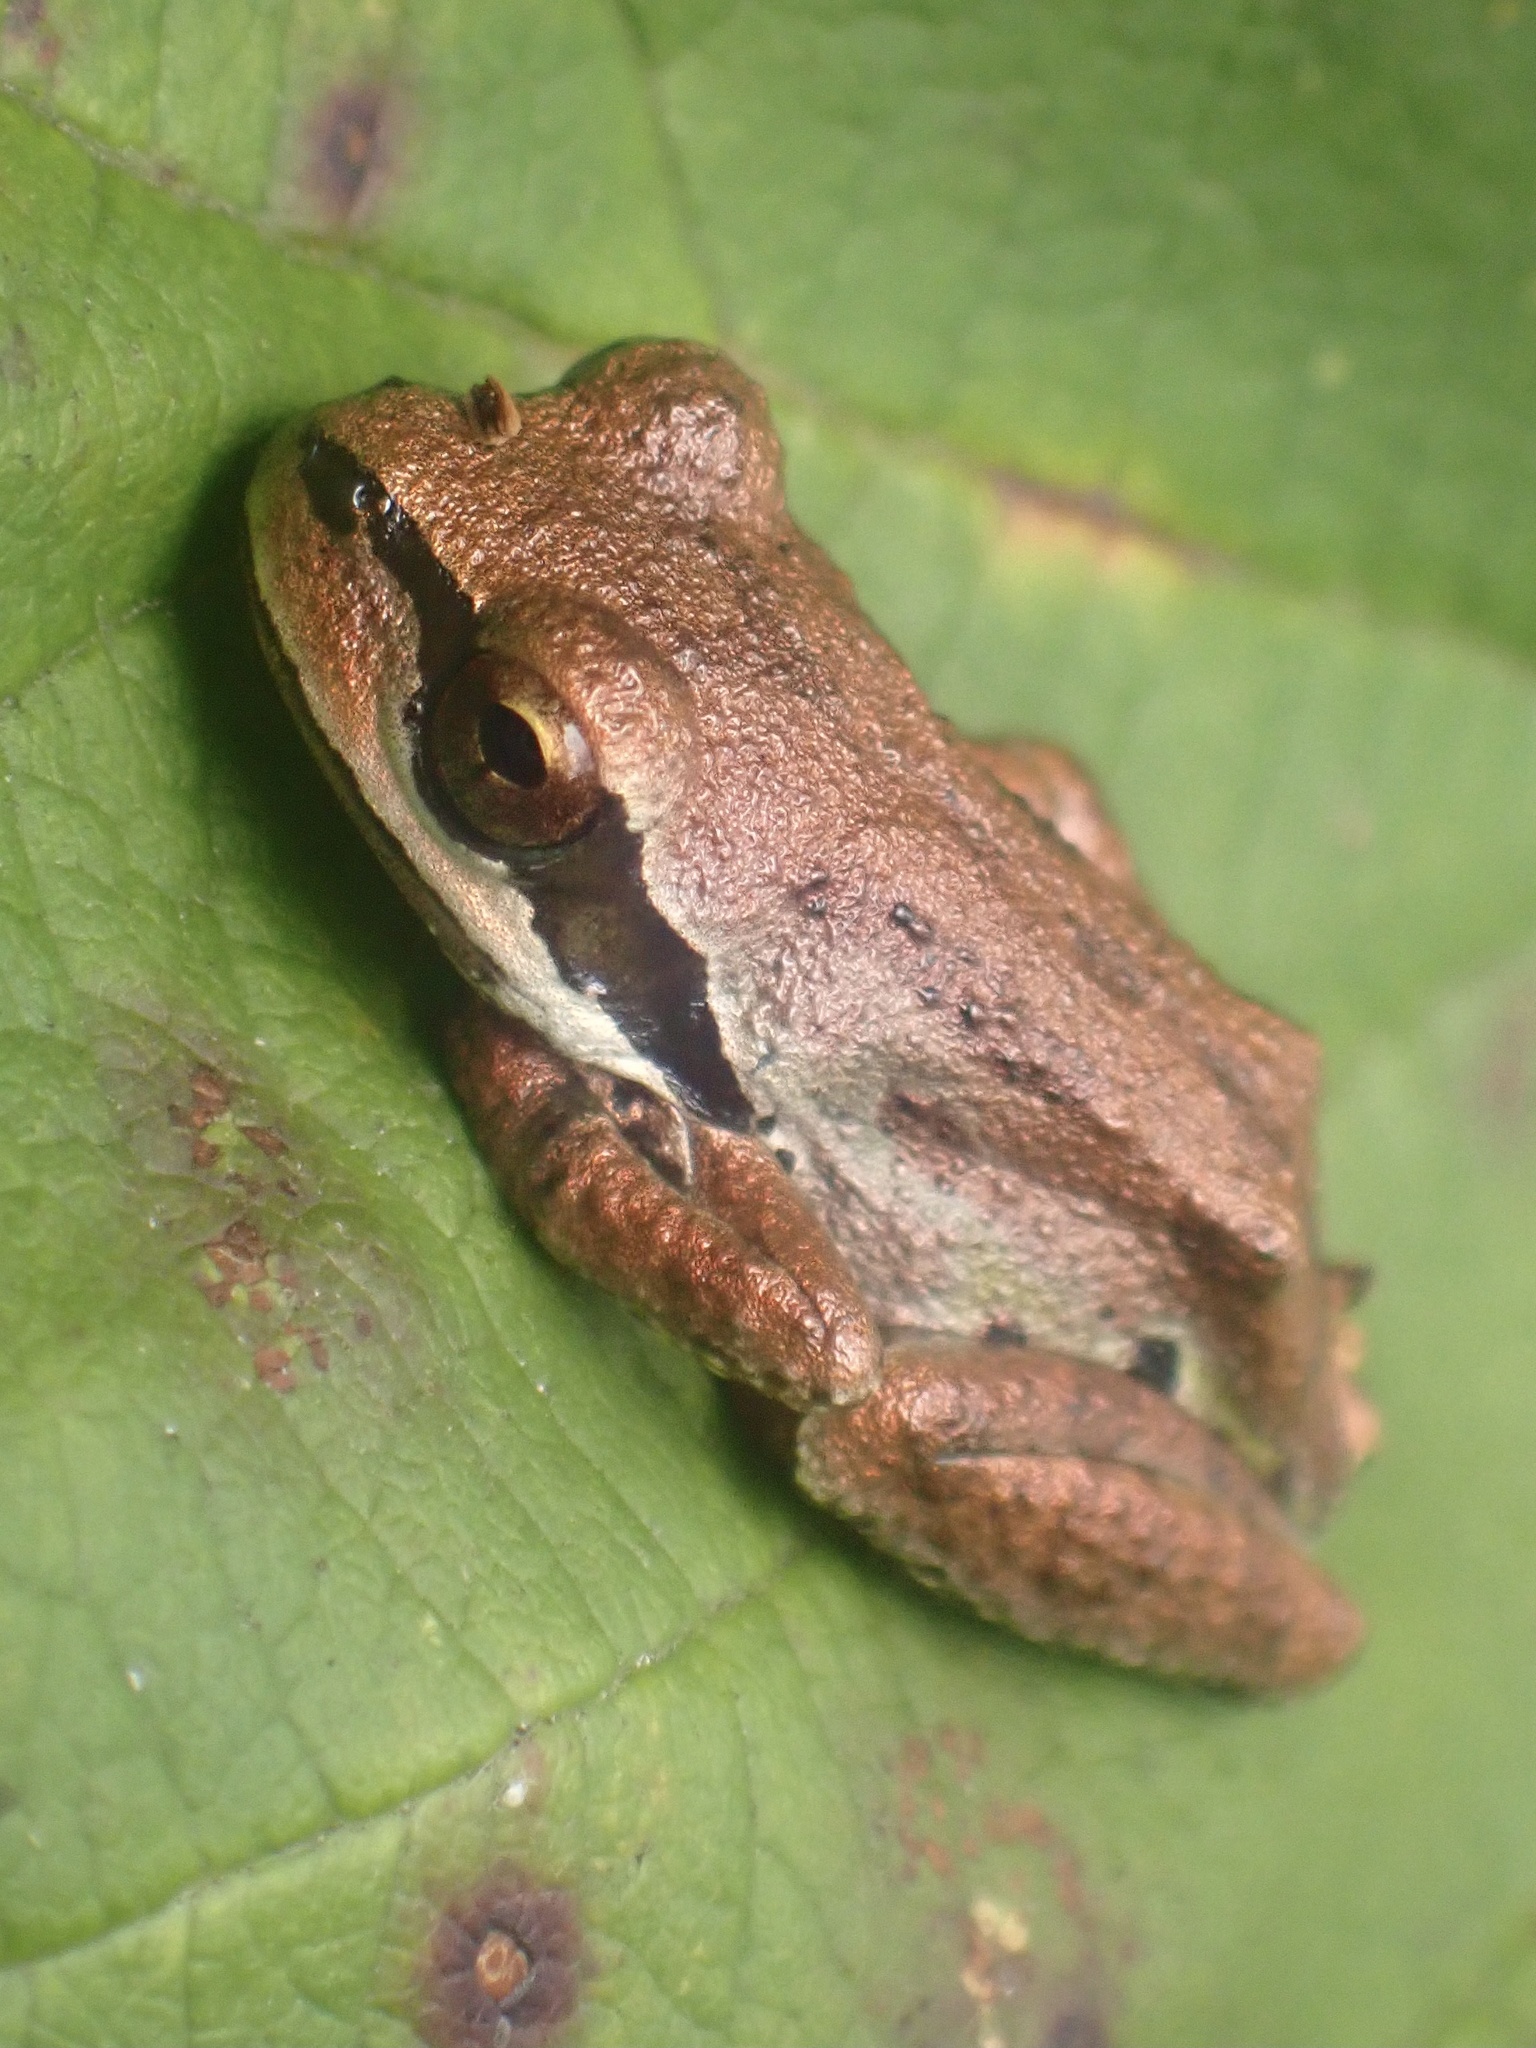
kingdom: Animalia
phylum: Chordata
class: Amphibia
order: Anura
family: Hylidae
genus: Pseudacris
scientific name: Pseudacris regilla
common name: Pacific chorus frog
